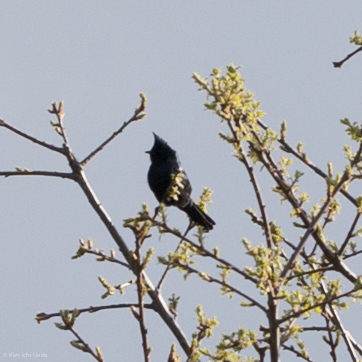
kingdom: Animalia
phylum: Chordata
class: Aves
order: Passeriformes
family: Ptilogonatidae
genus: Phainopepla
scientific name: Phainopepla nitens
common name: Phainopepla
